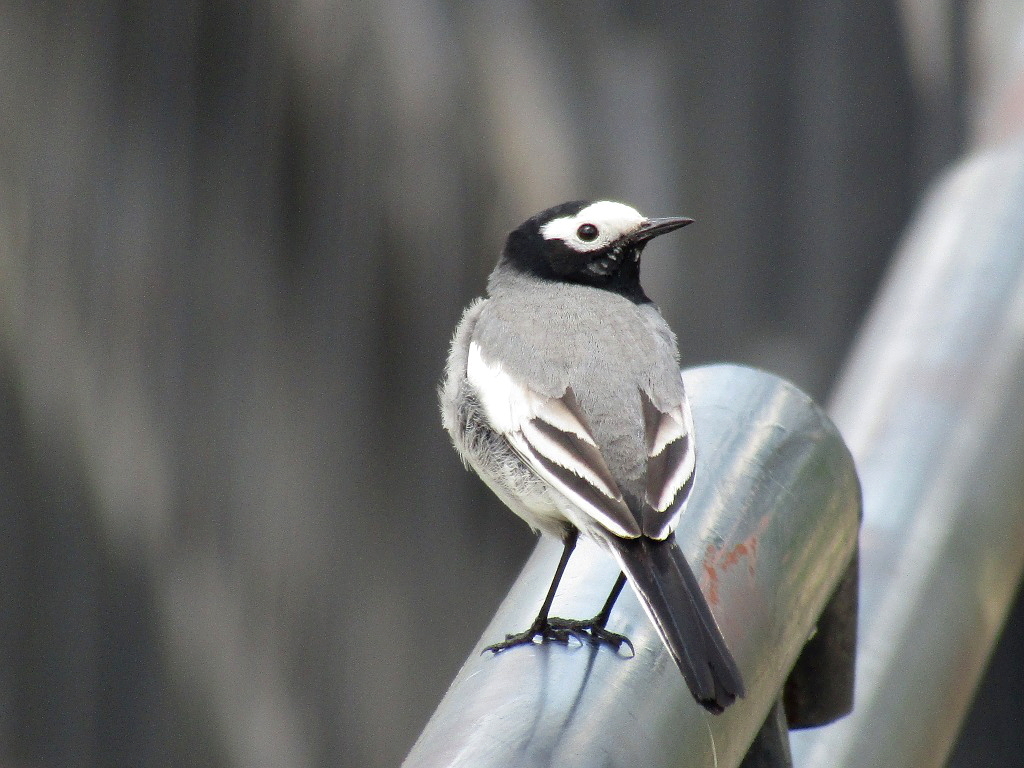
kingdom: Animalia
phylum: Chordata
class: Aves
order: Passeriformes
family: Motacillidae
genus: Motacilla
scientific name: Motacilla alba
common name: White wagtail
